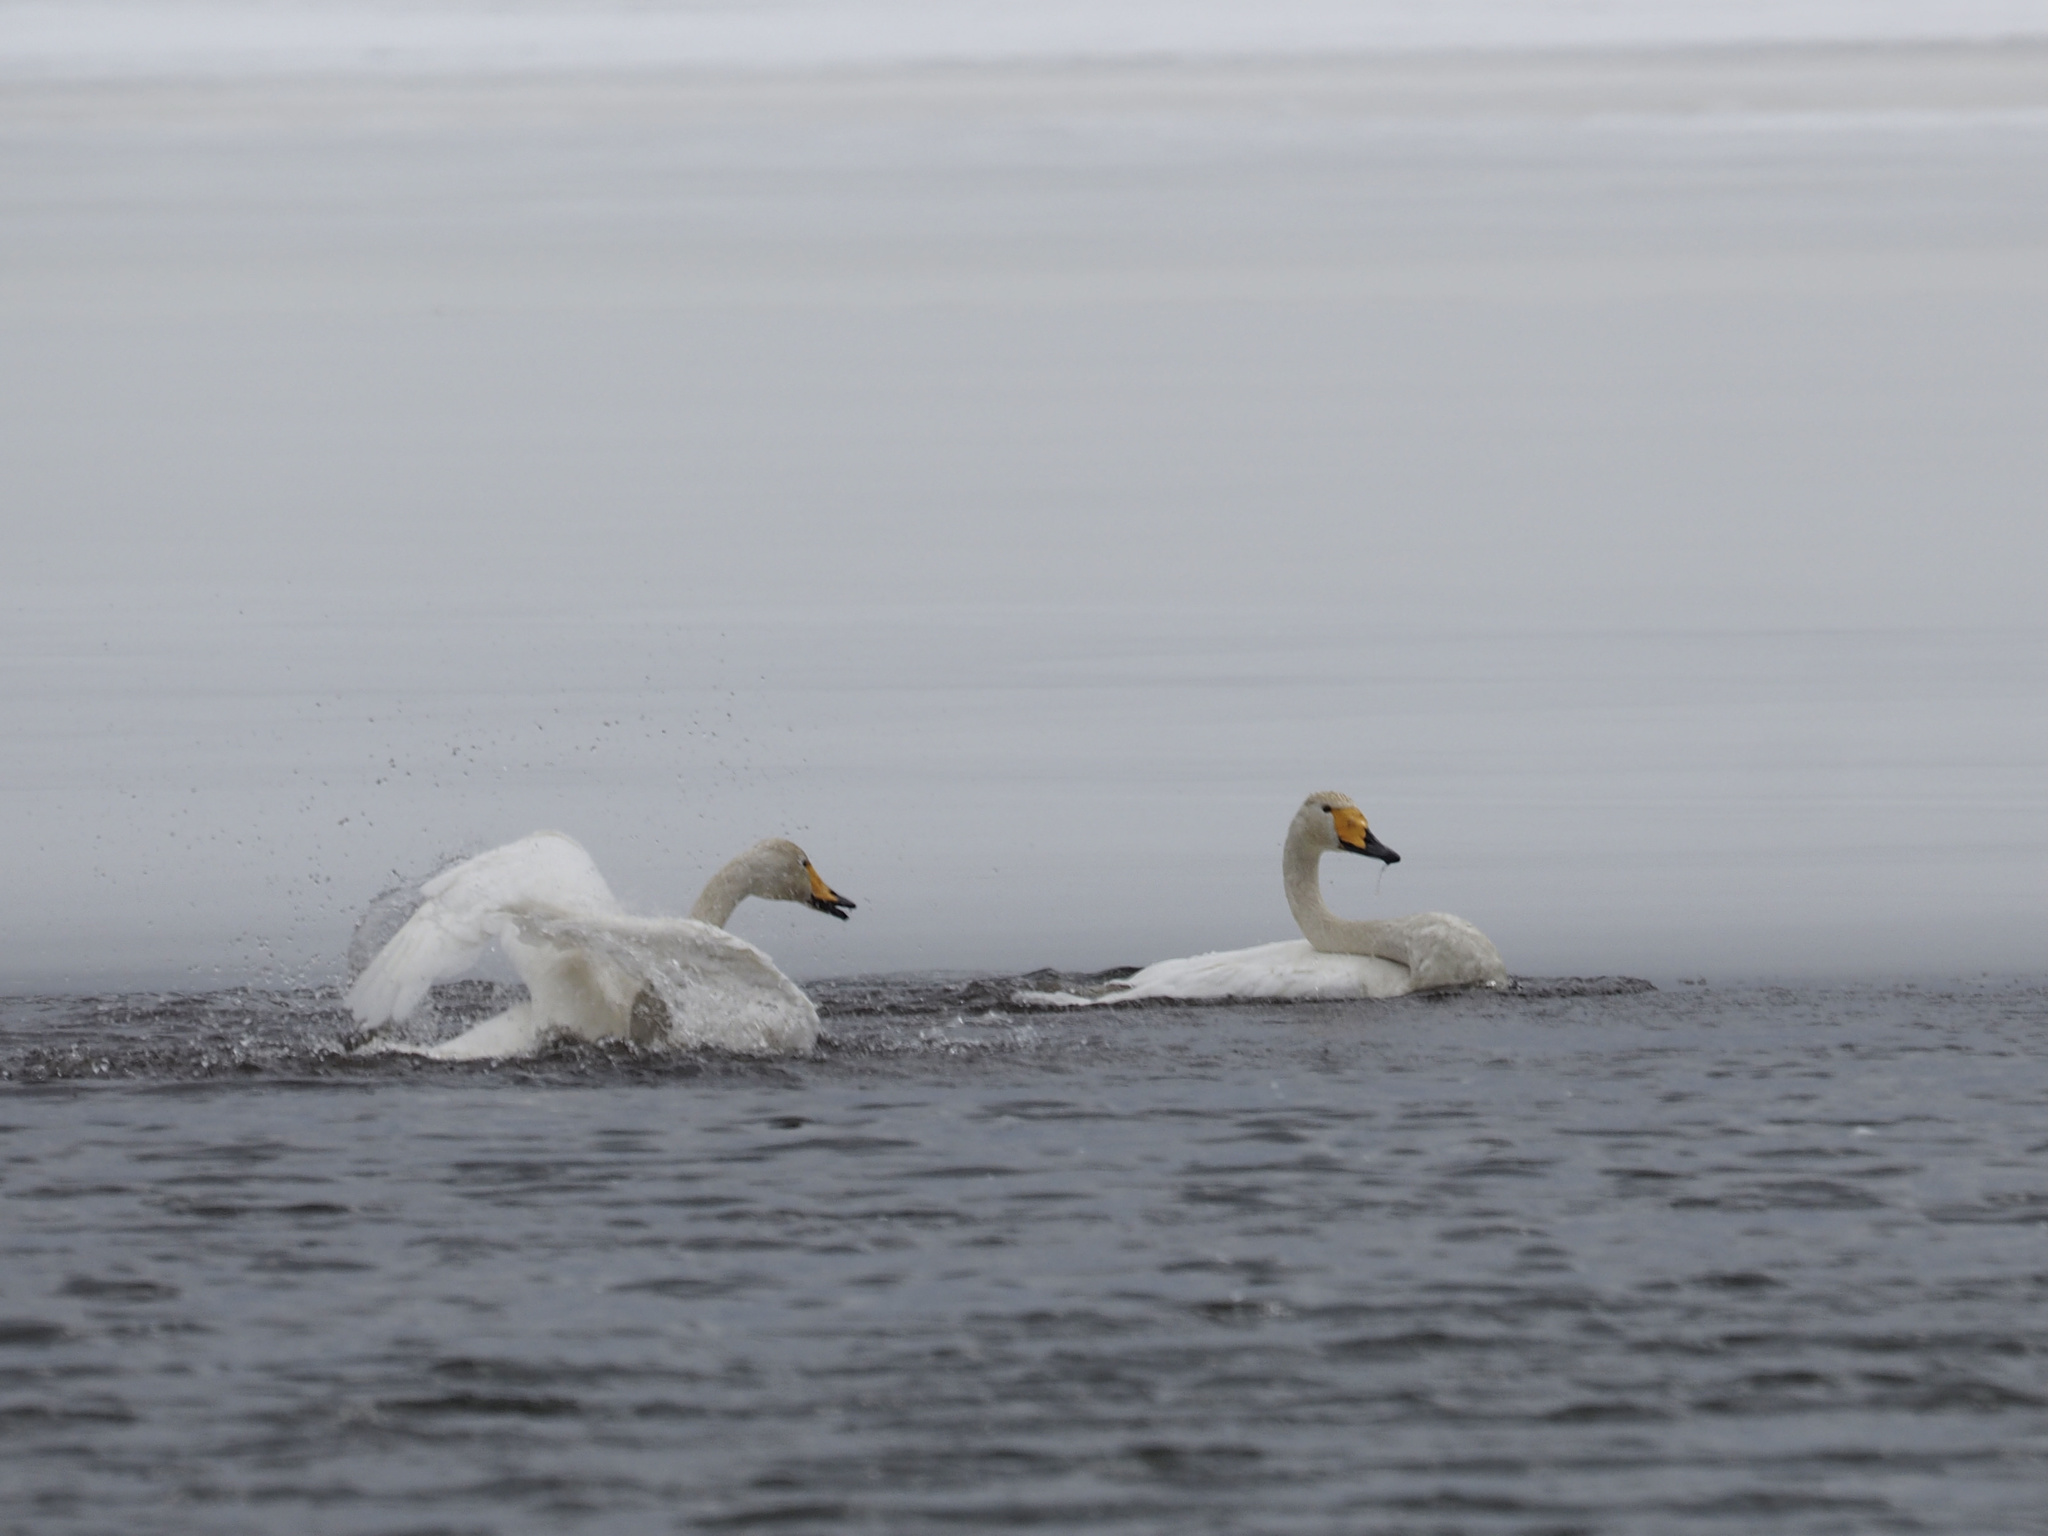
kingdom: Animalia
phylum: Chordata
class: Aves
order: Anseriformes
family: Anatidae
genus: Cygnus
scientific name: Cygnus cygnus
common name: Whooper swan
